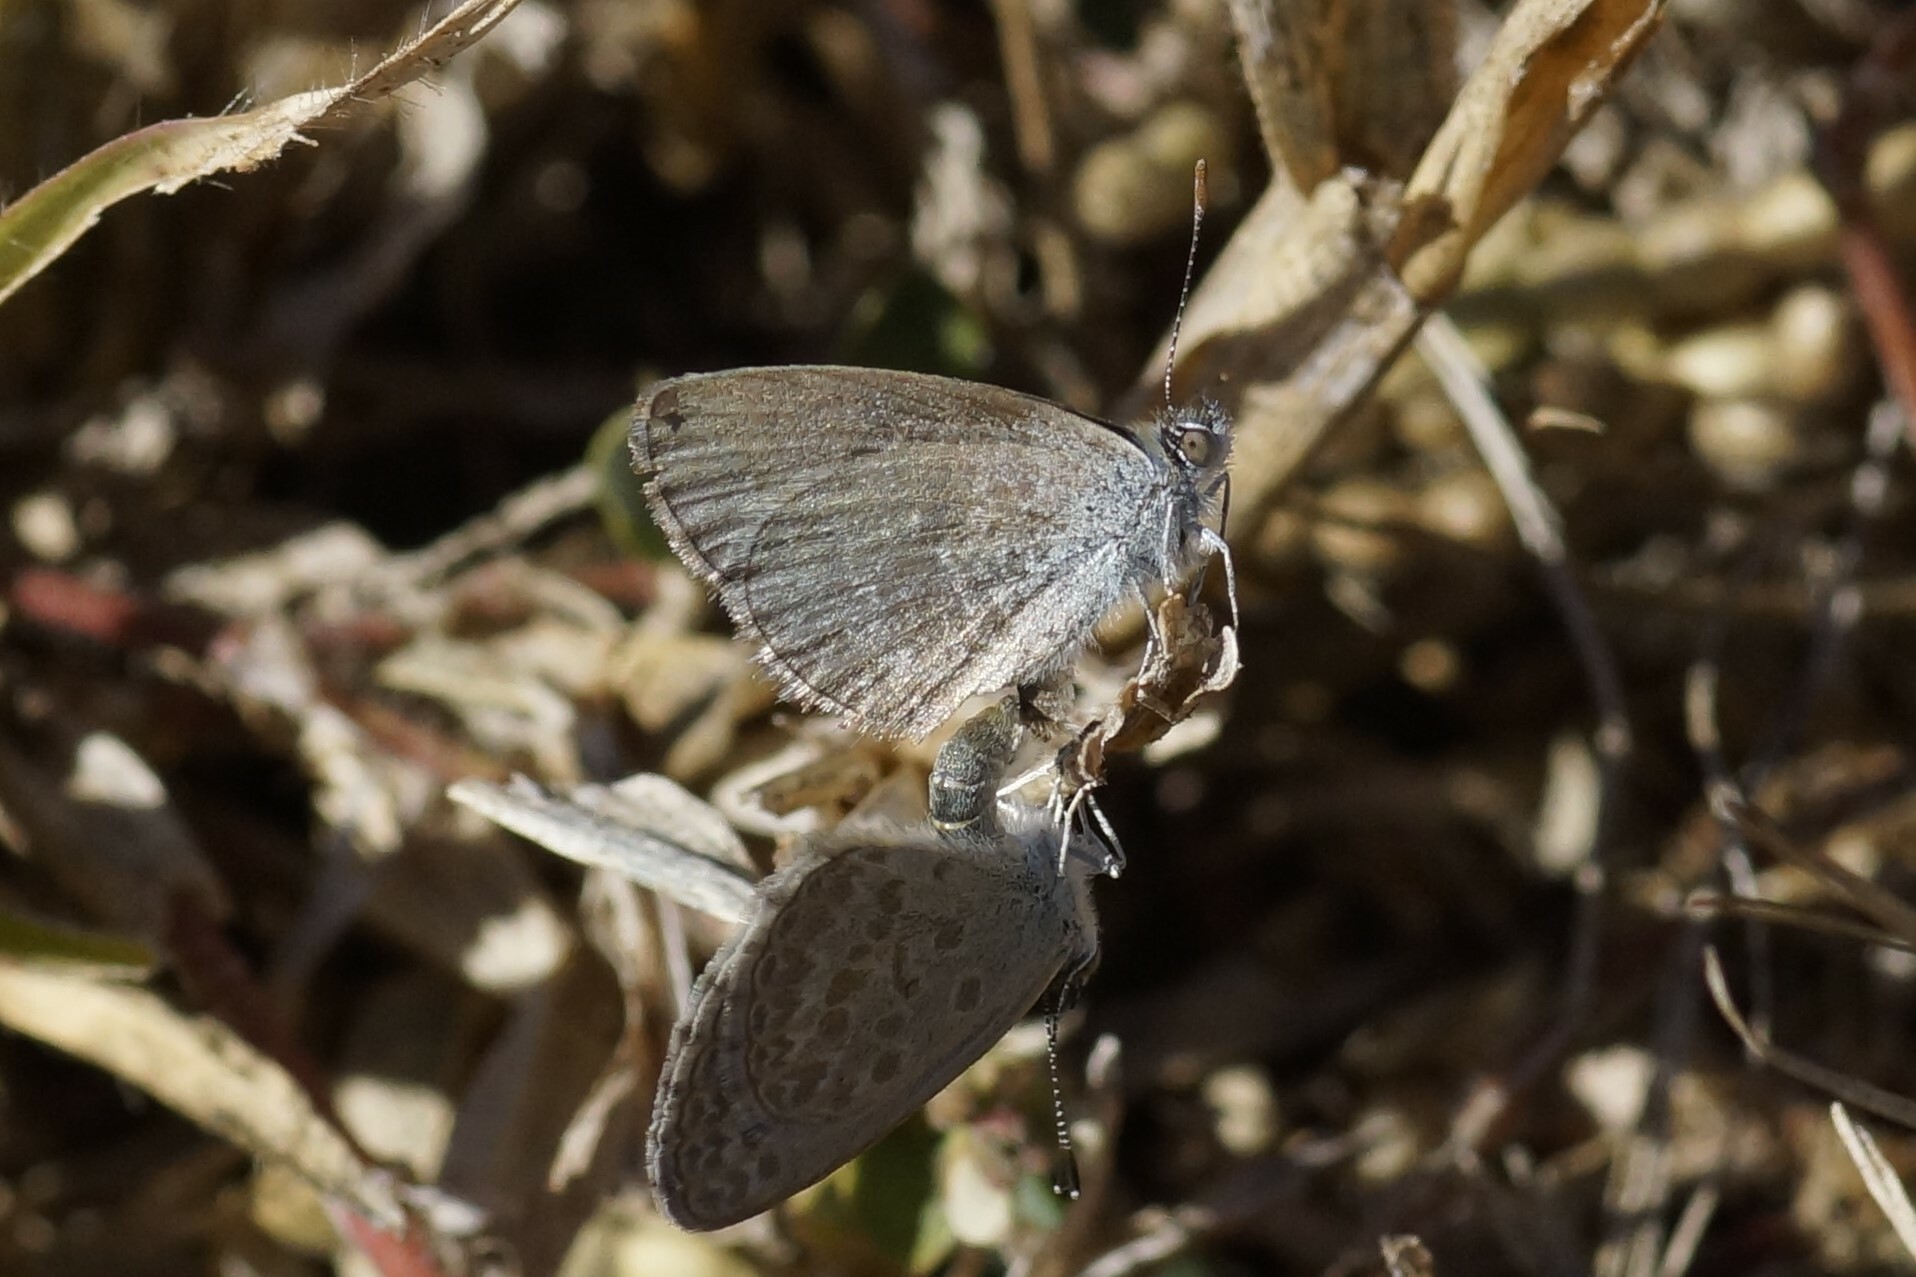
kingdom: Animalia
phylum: Arthropoda
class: Insecta
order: Lepidoptera
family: Lycaenidae
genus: Zizina
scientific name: Zizina otis
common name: Lesser grass blue
